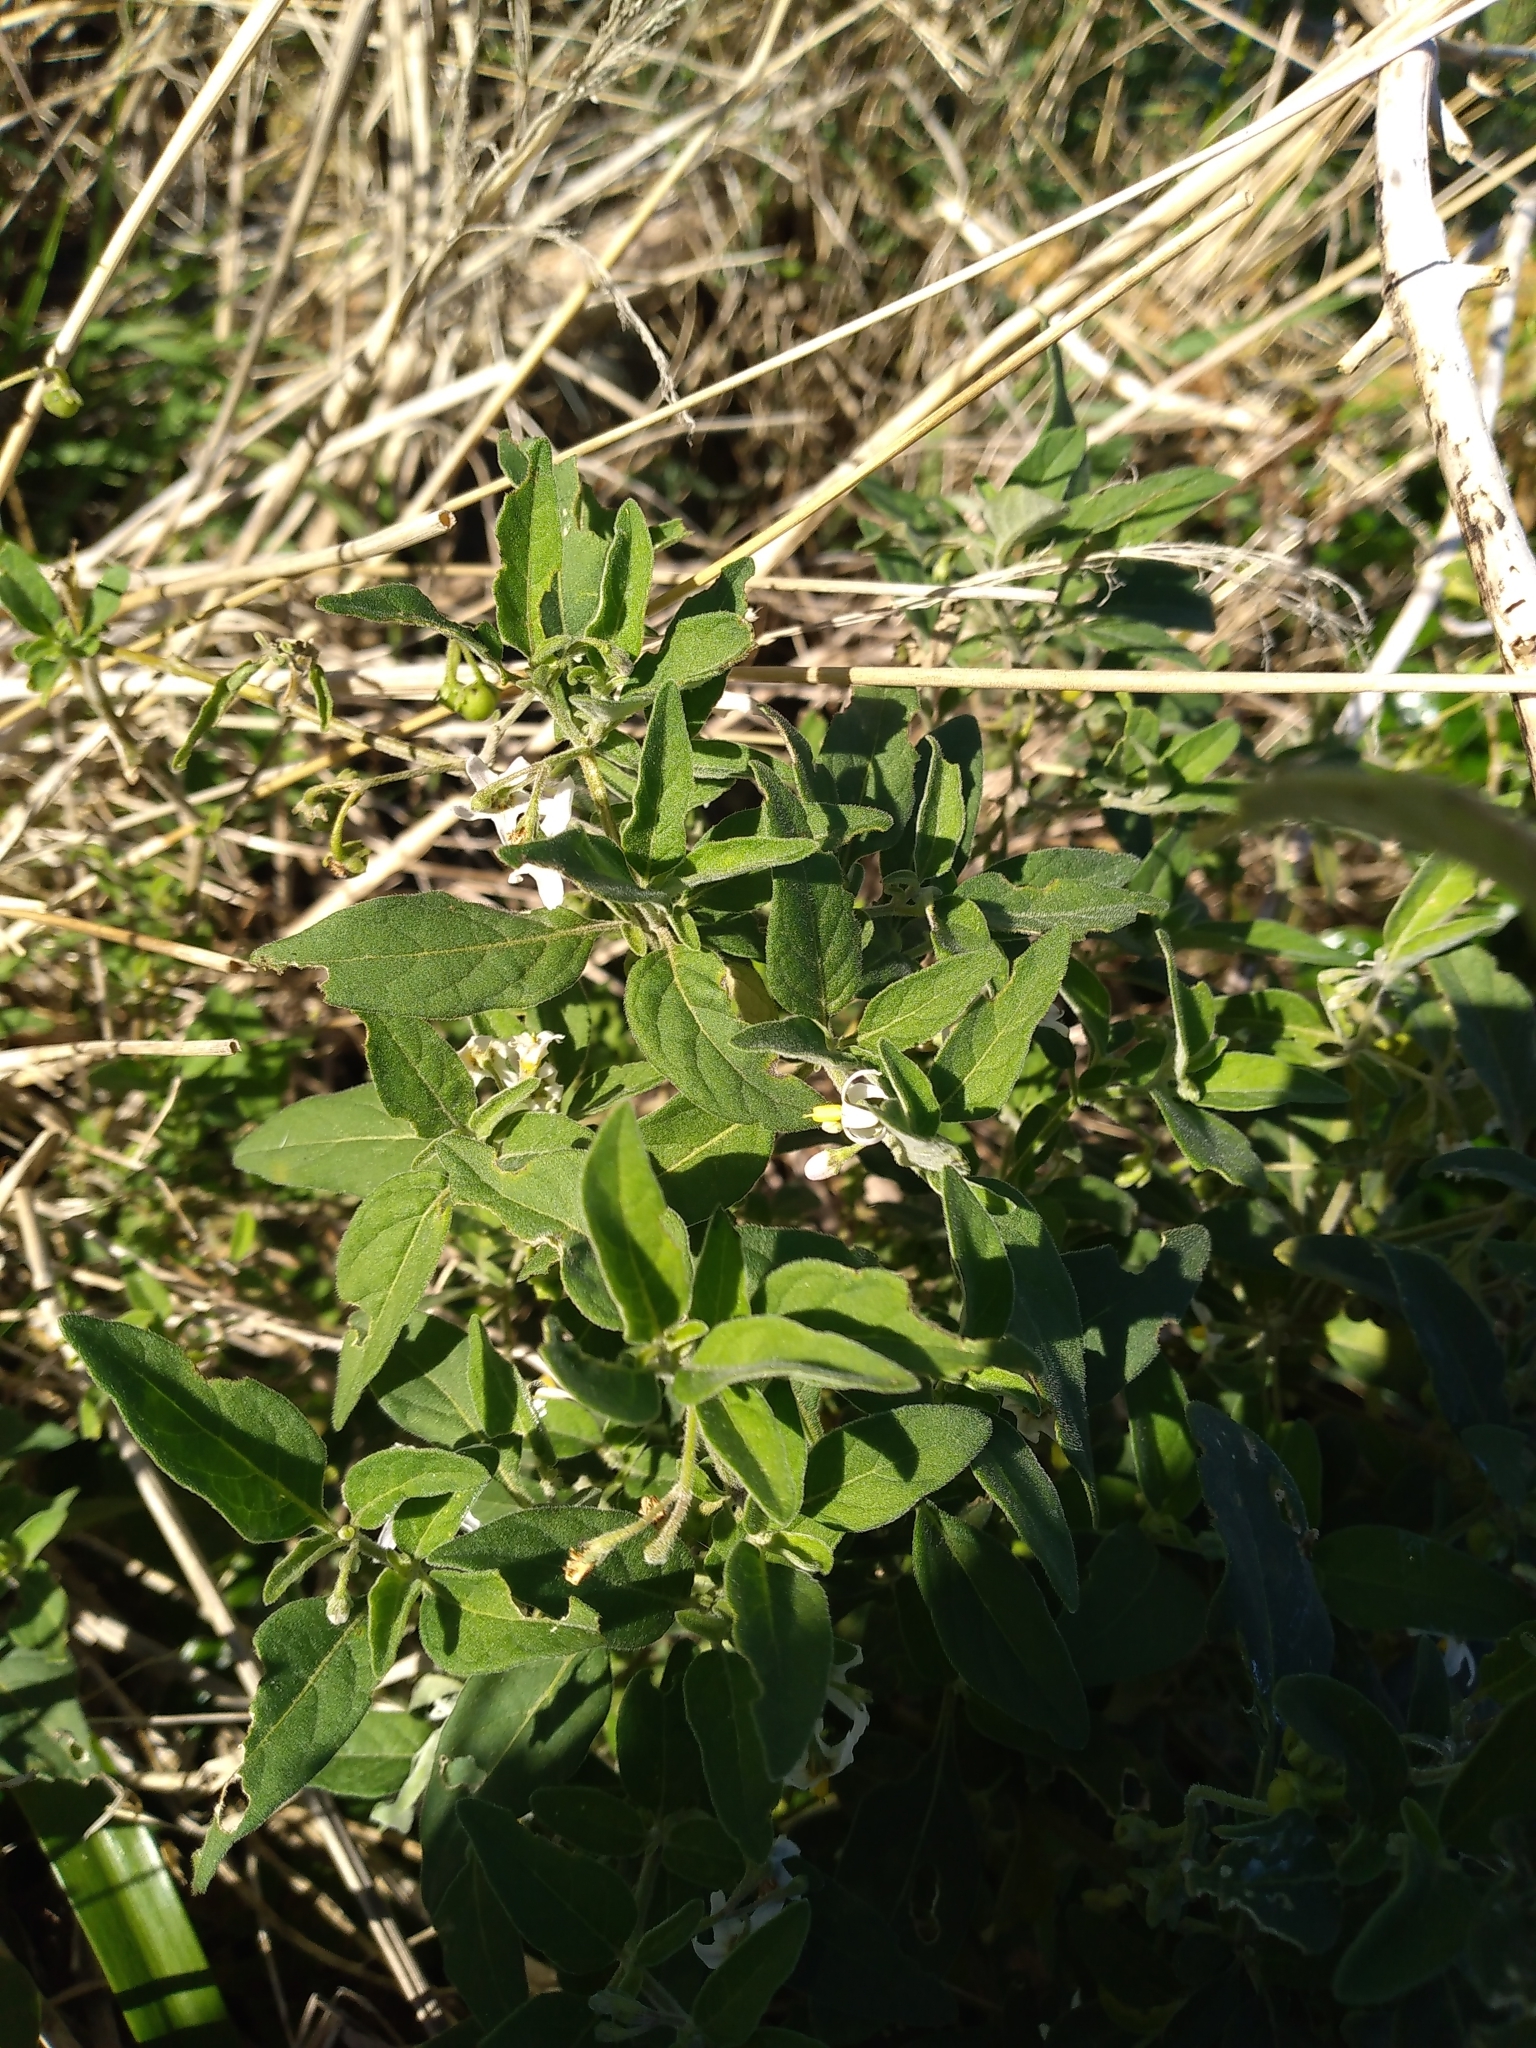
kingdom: Plantae
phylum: Tracheophyta
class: Magnoliopsida
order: Solanales
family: Solanaceae
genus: Solanum
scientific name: Solanum chenopodioides
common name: Tall nightshade
